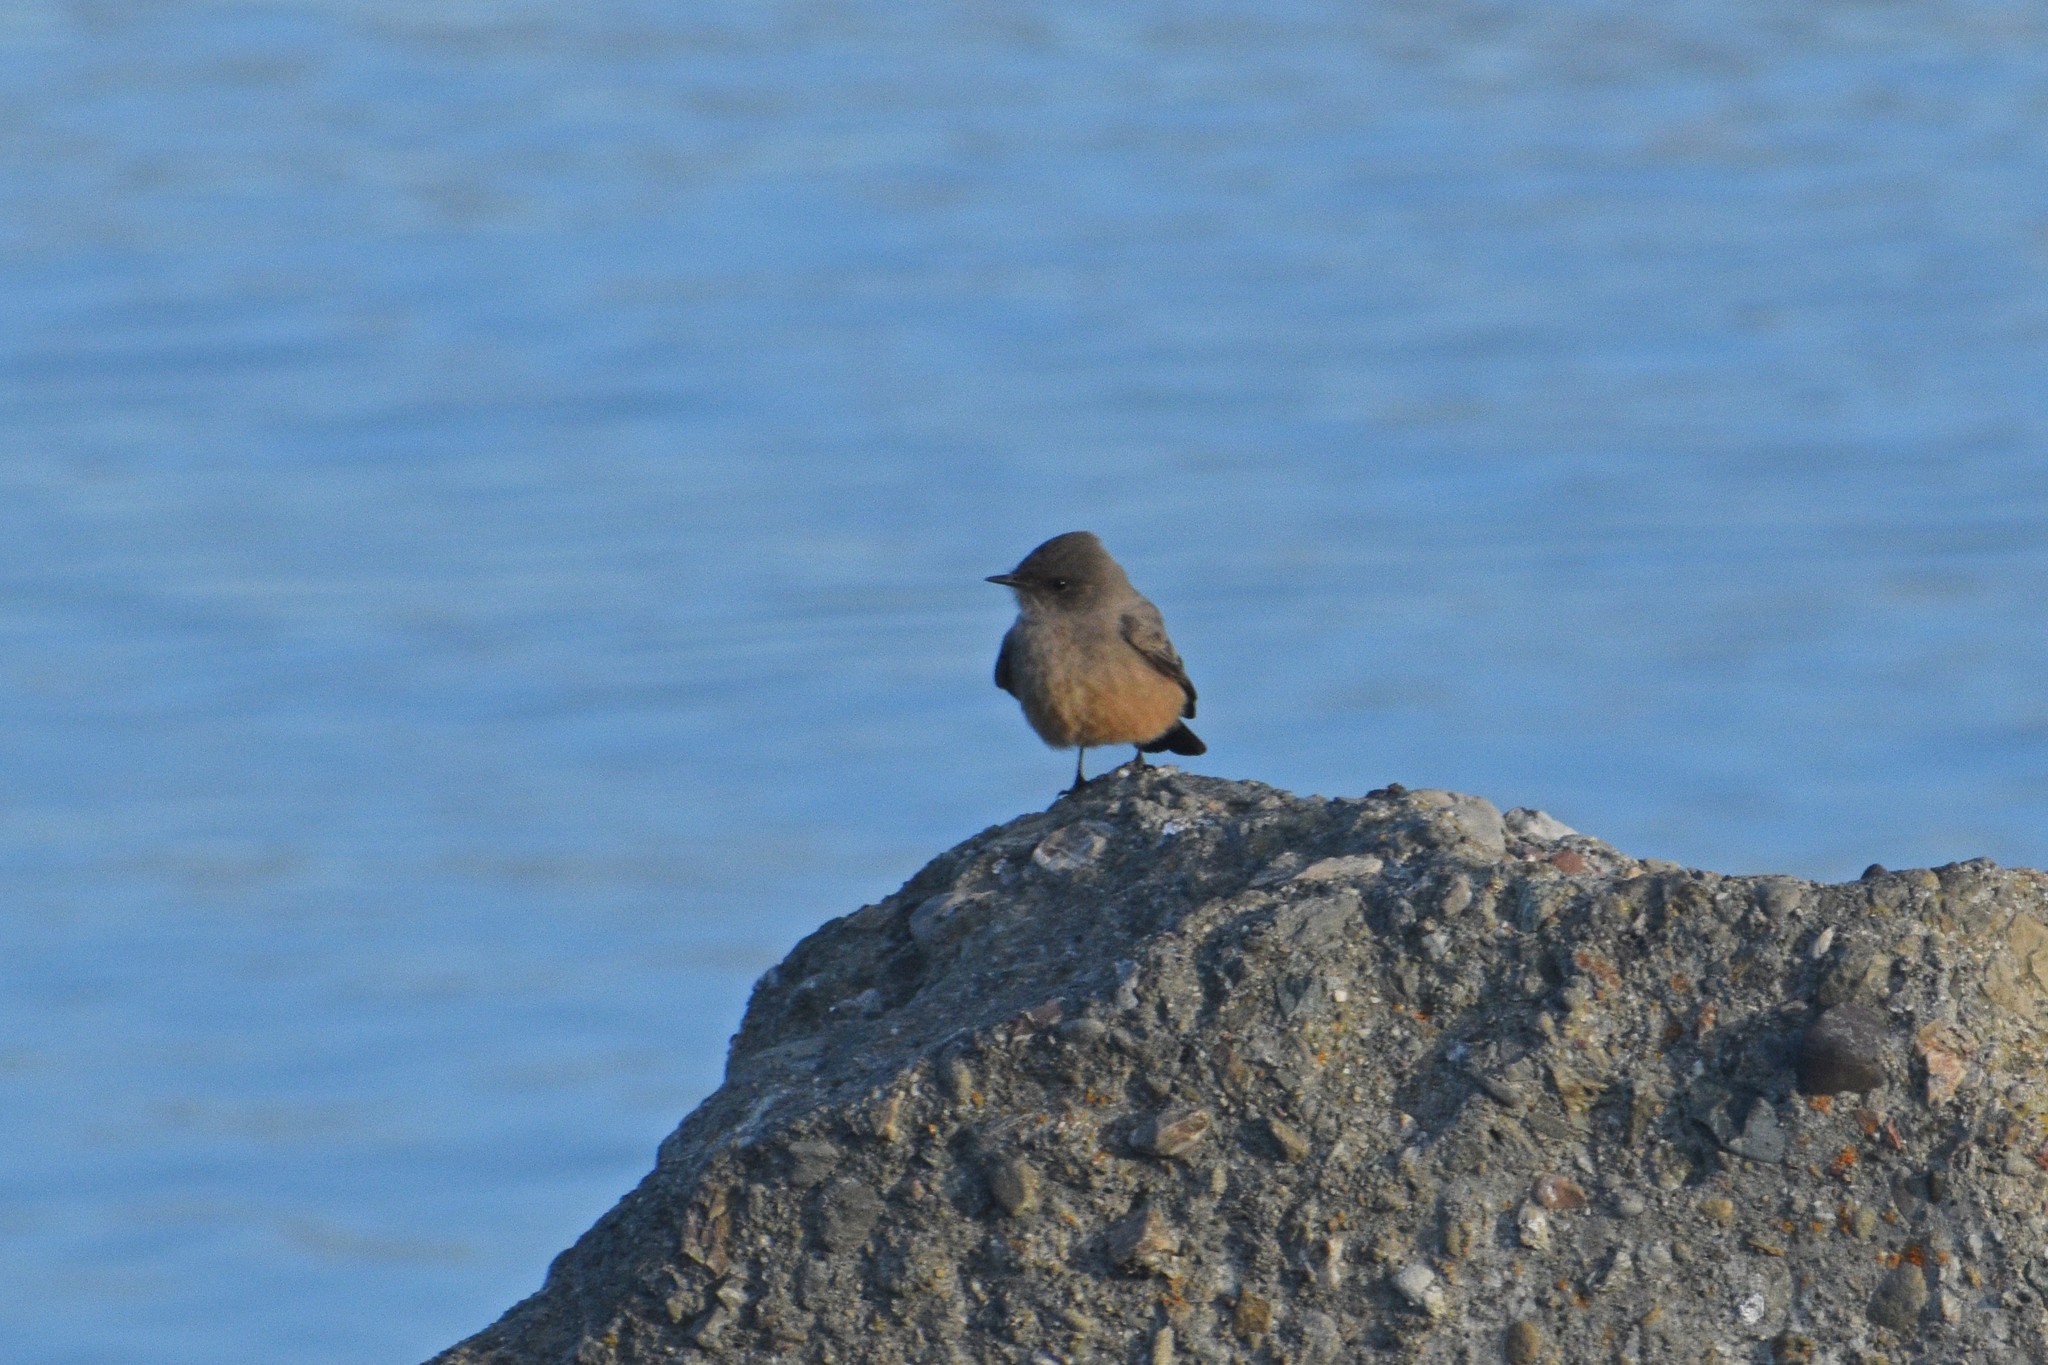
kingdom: Animalia
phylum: Chordata
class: Aves
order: Passeriformes
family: Tyrannidae
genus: Sayornis
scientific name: Sayornis saya
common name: Say's phoebe
